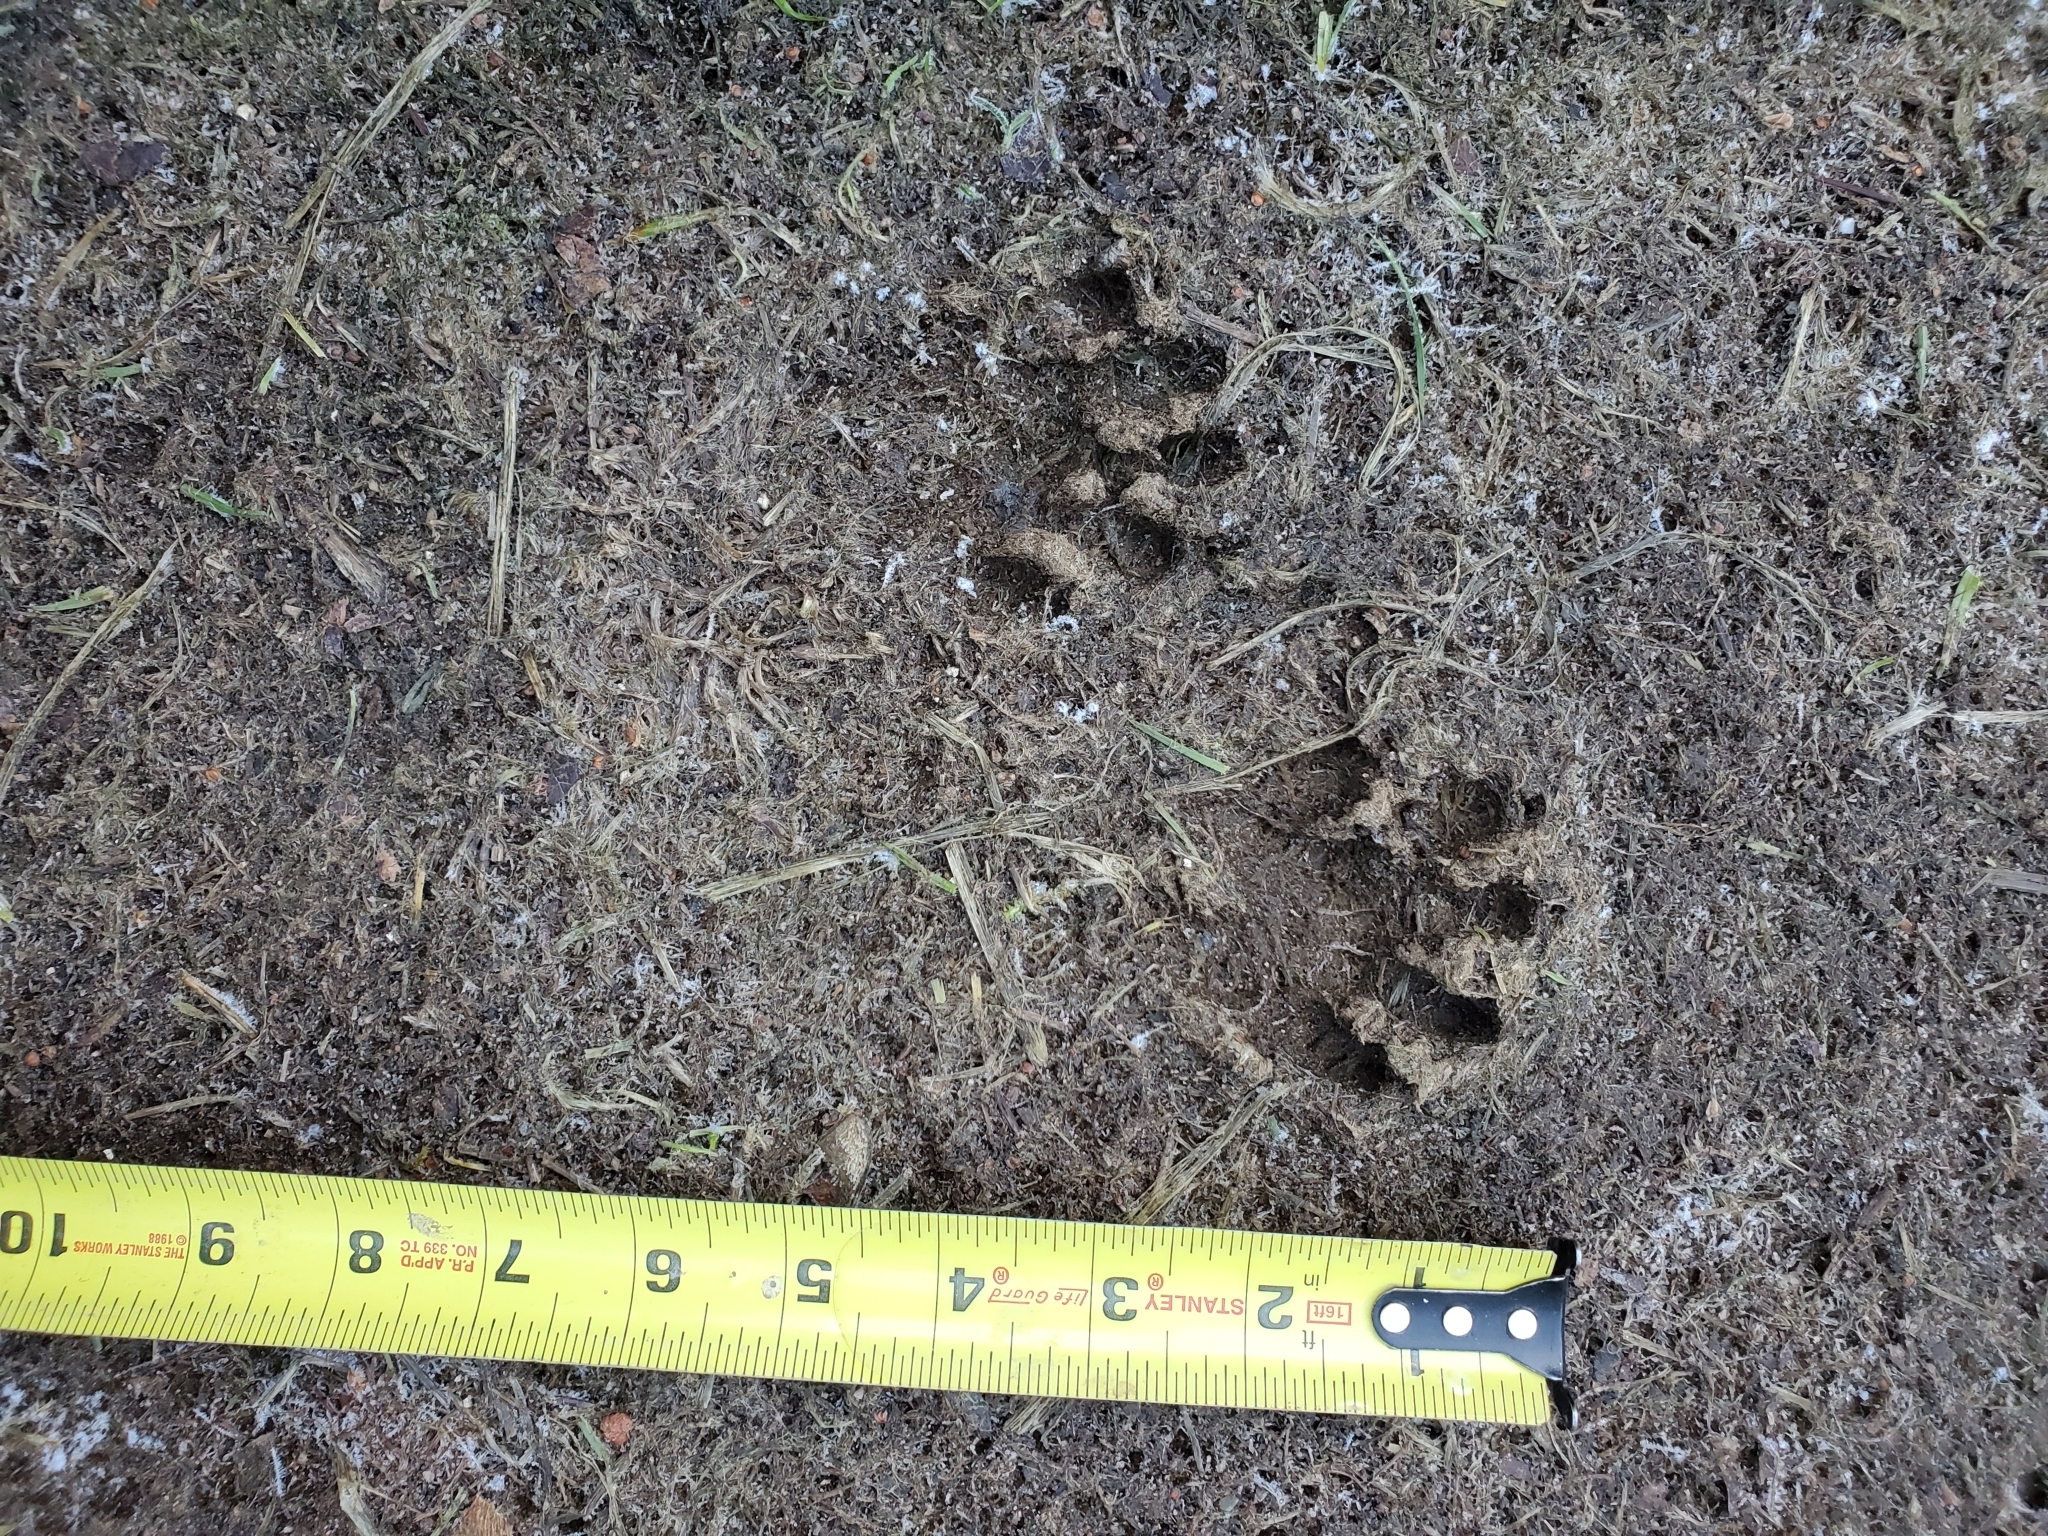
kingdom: Animalia
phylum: Chordata
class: Mammalia
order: Carnivora
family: Procyonidae
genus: Procyon
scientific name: Procyon lotor
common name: Raccoon
